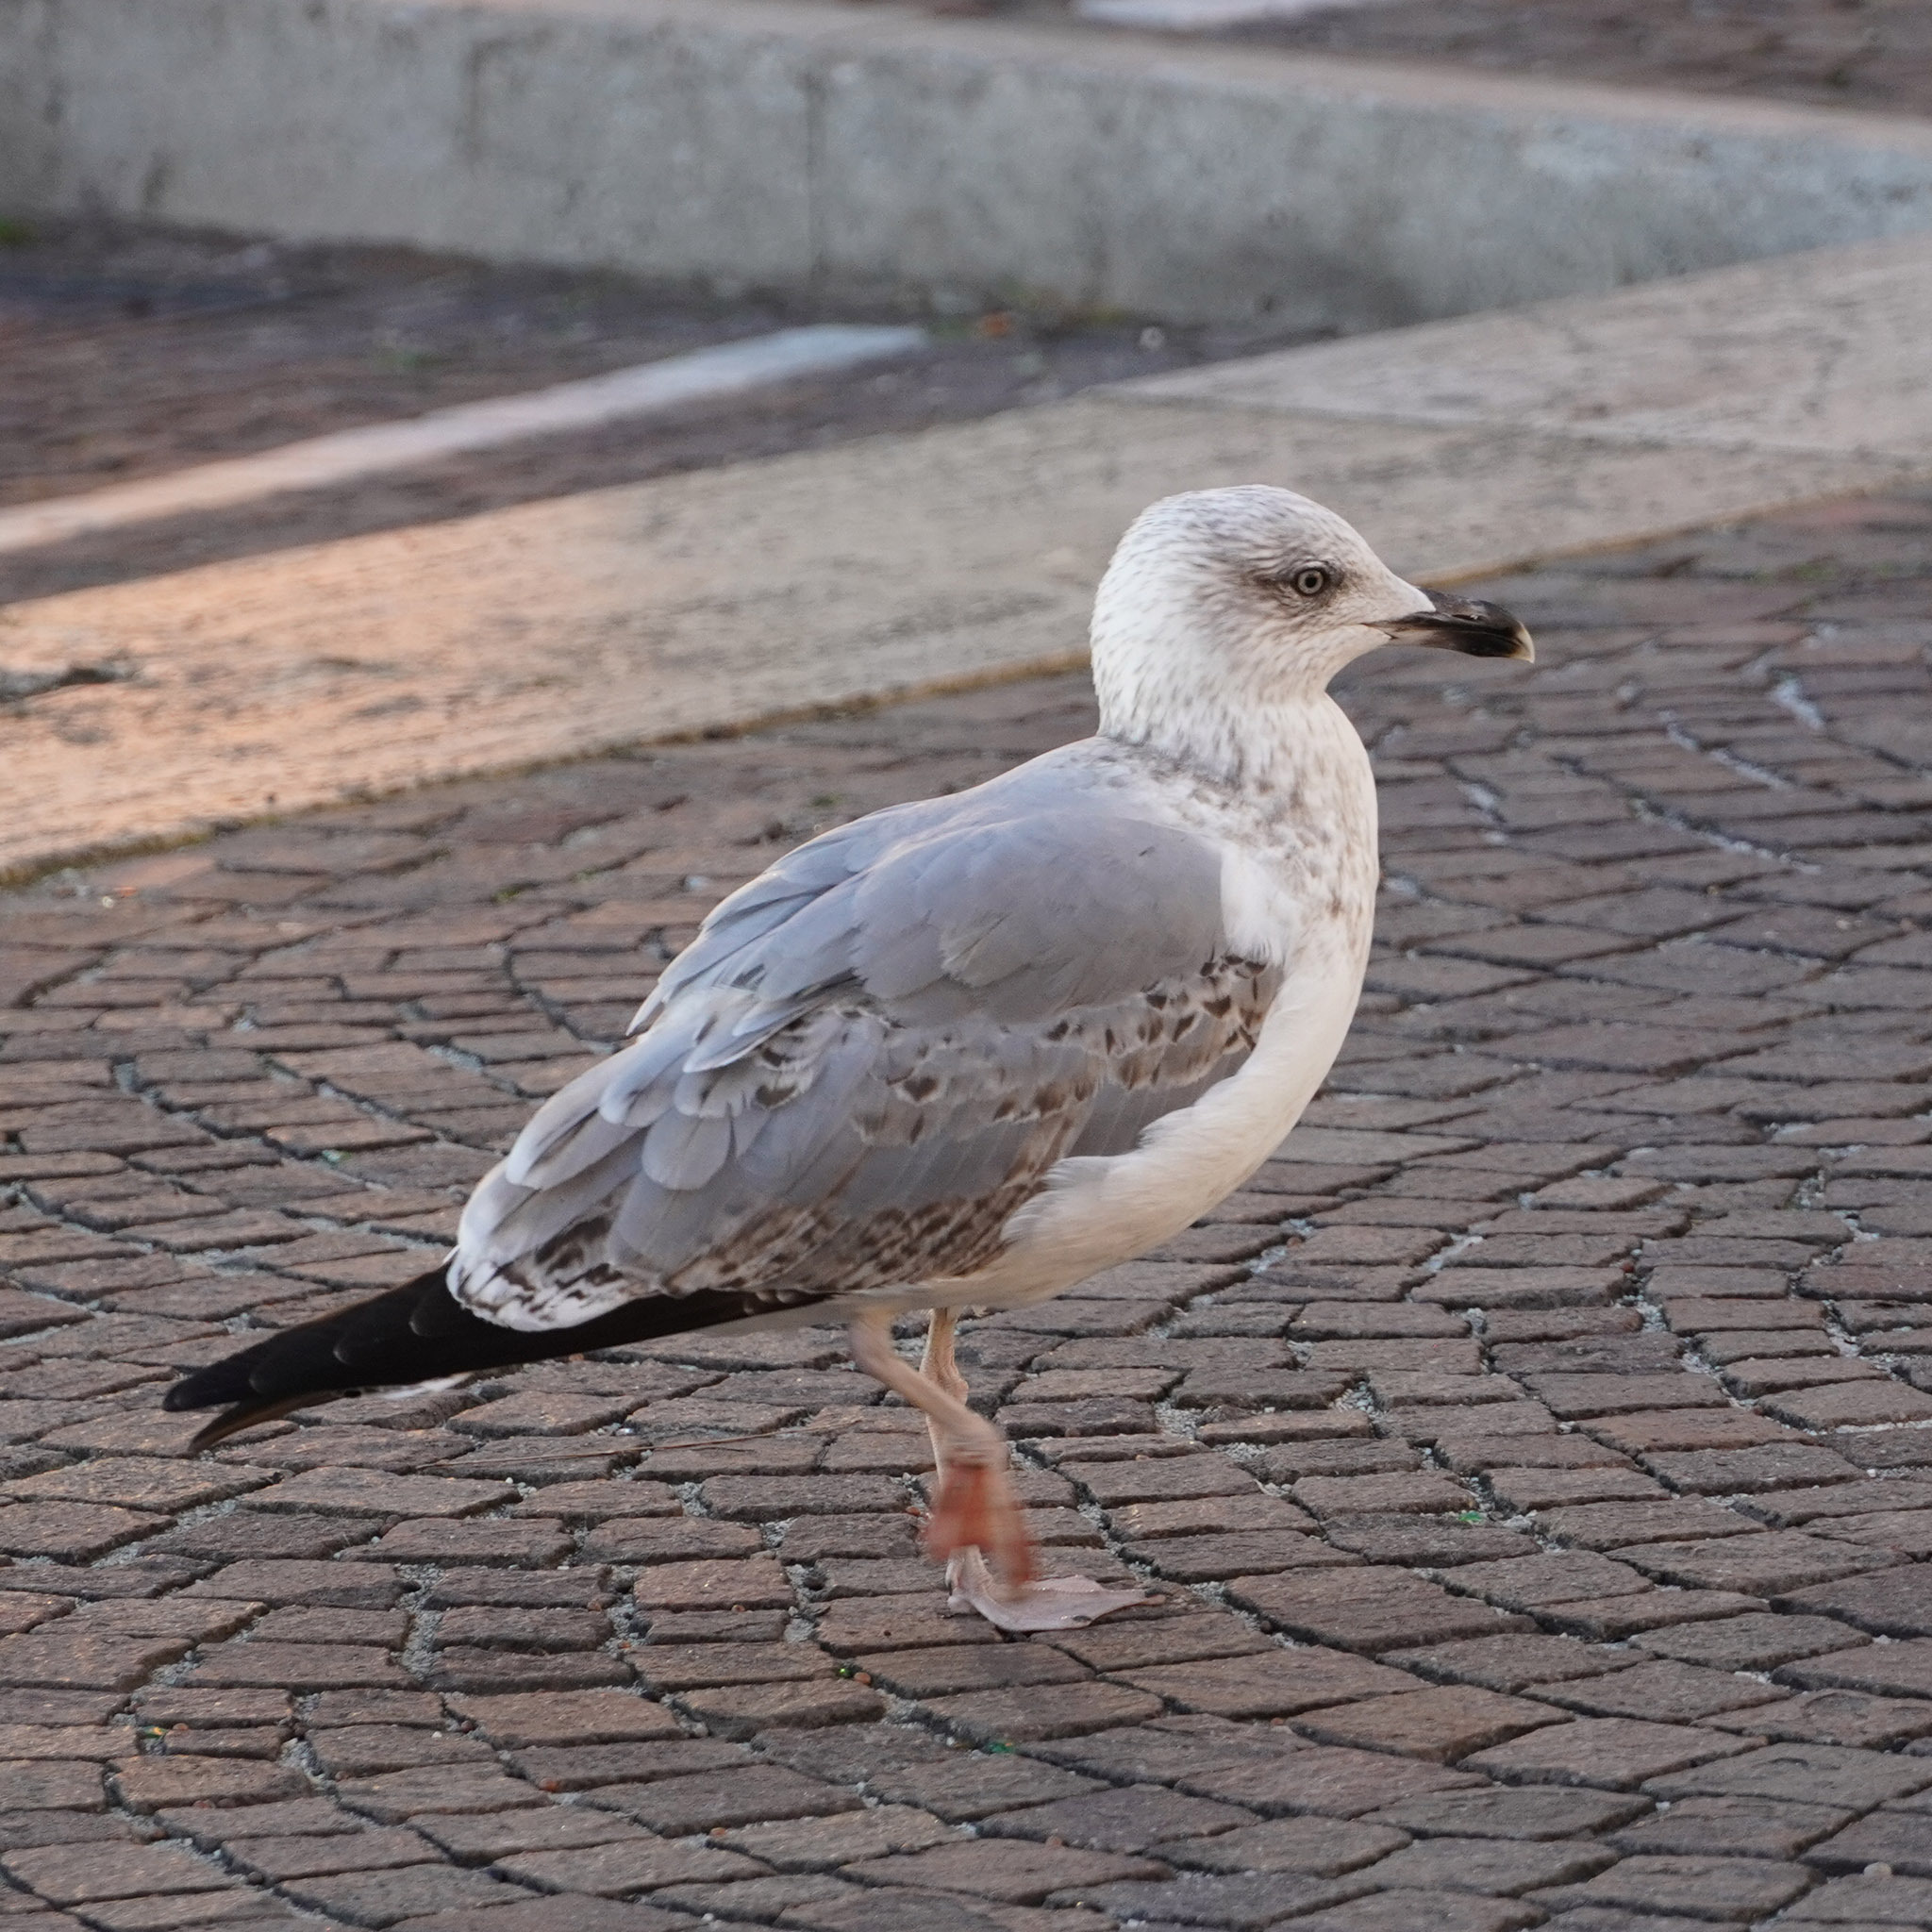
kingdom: Animalia
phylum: Chordata
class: Aves
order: Charadriiformes
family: Laridae
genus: Larus
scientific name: Larus michahellis
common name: Yellow-legged gull
